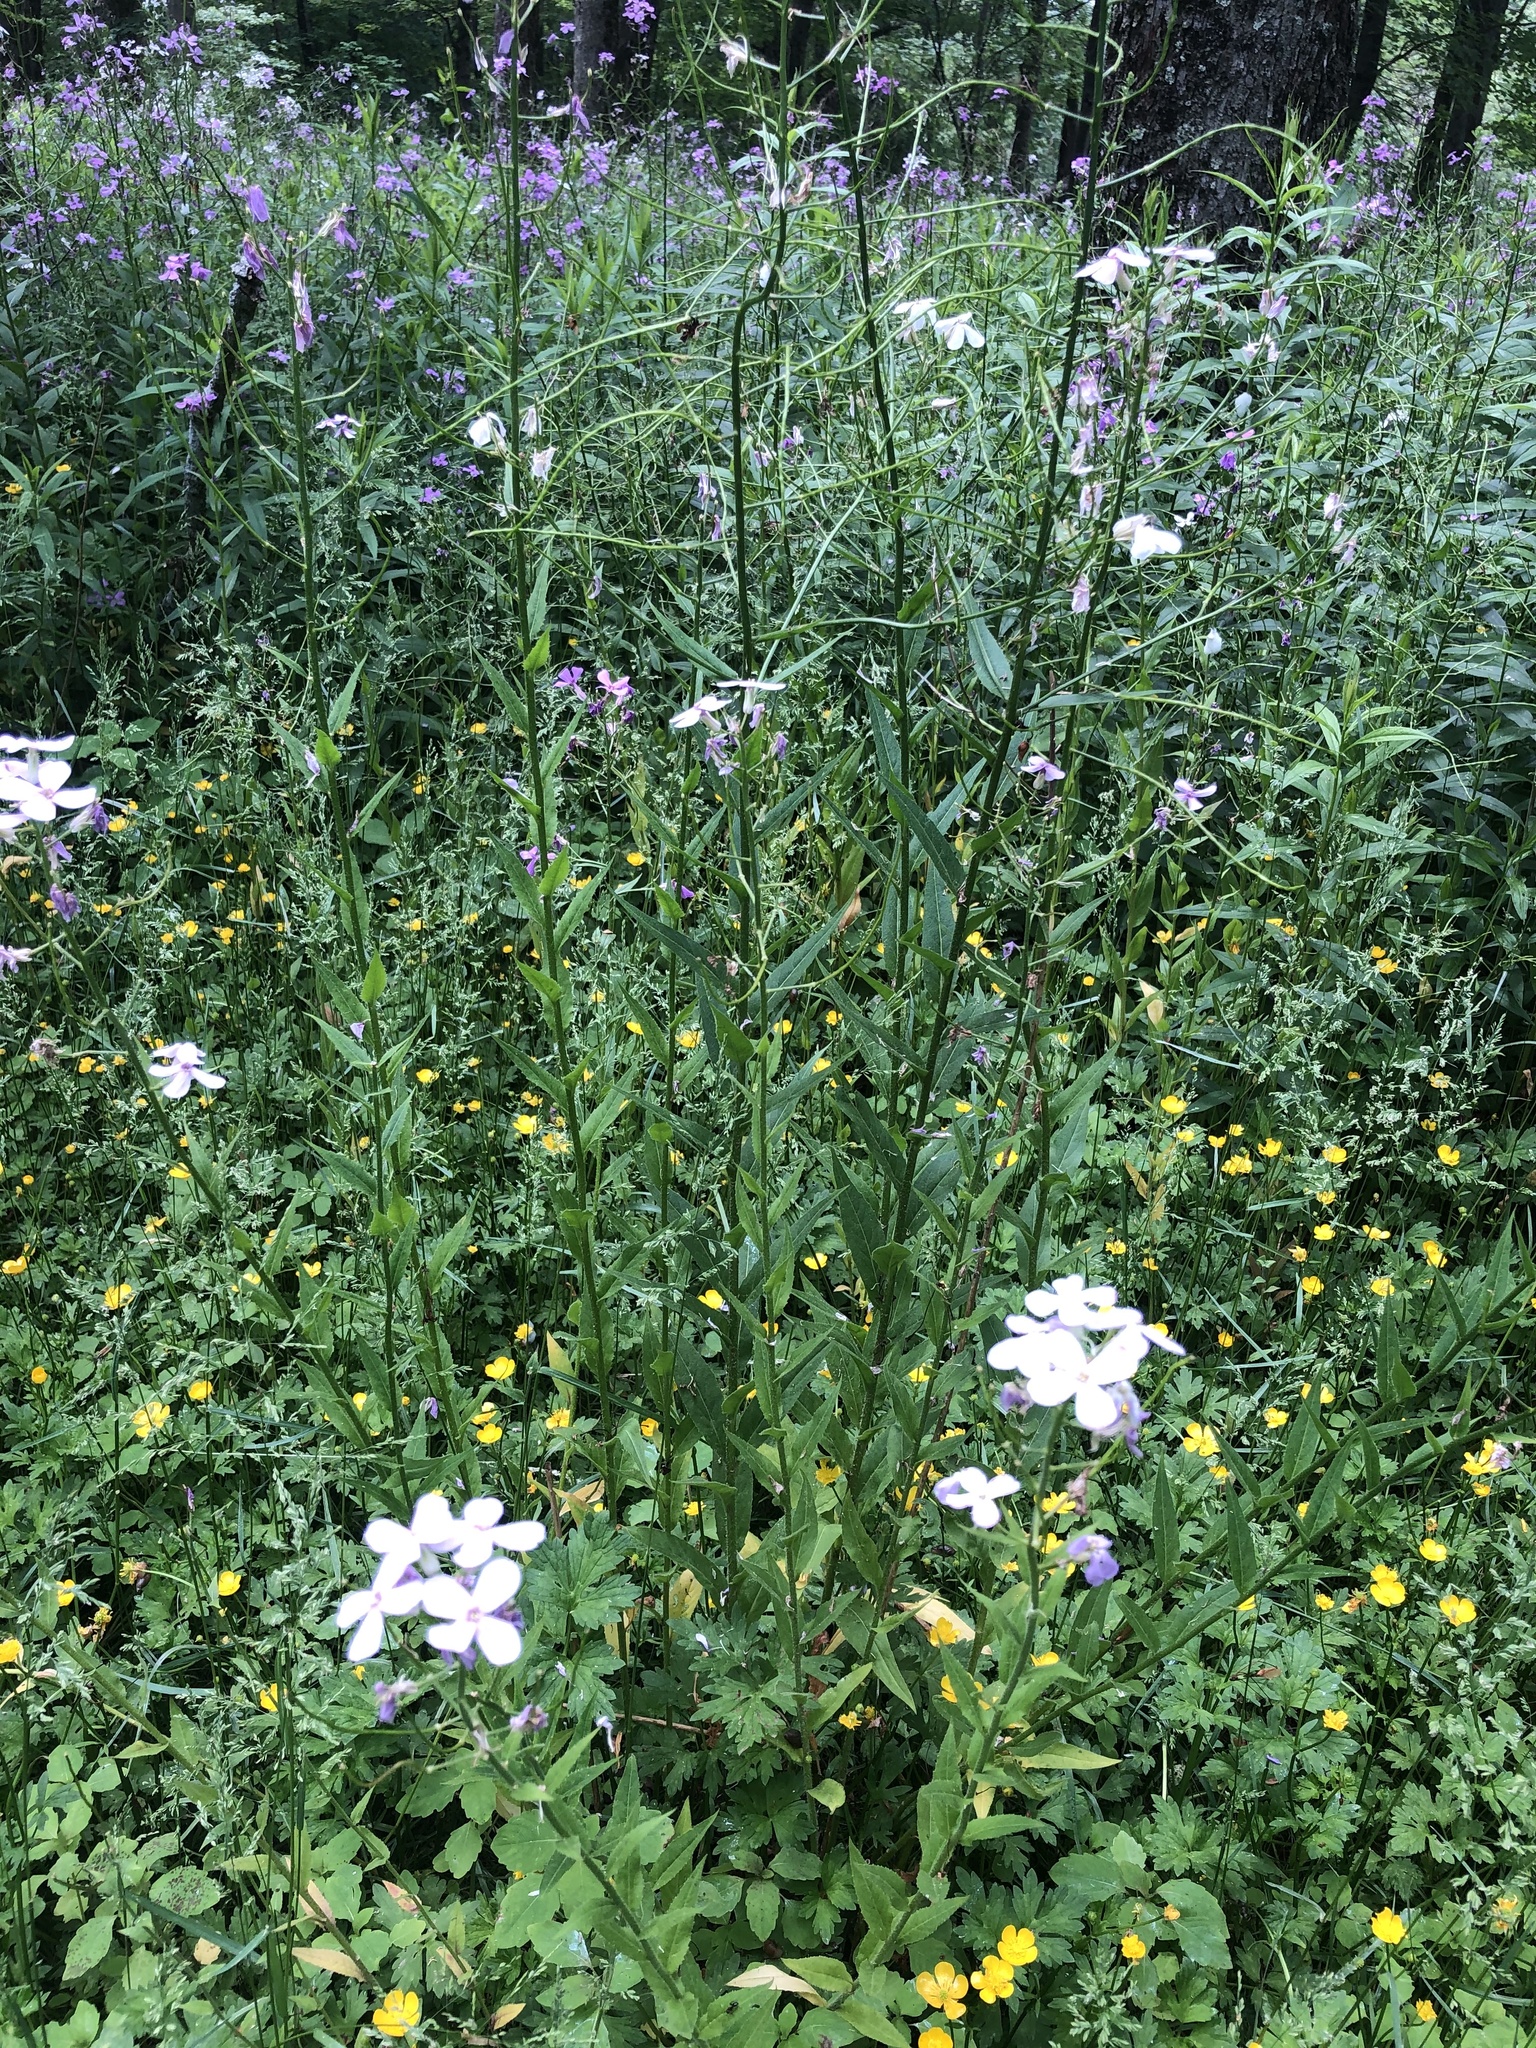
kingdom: Plantae
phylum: Tracheophyta
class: Magnoliopsida
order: Brassicales
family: Brassicaceae
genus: Hesperis
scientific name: Hesperis matronalis
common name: Dame's-violet
